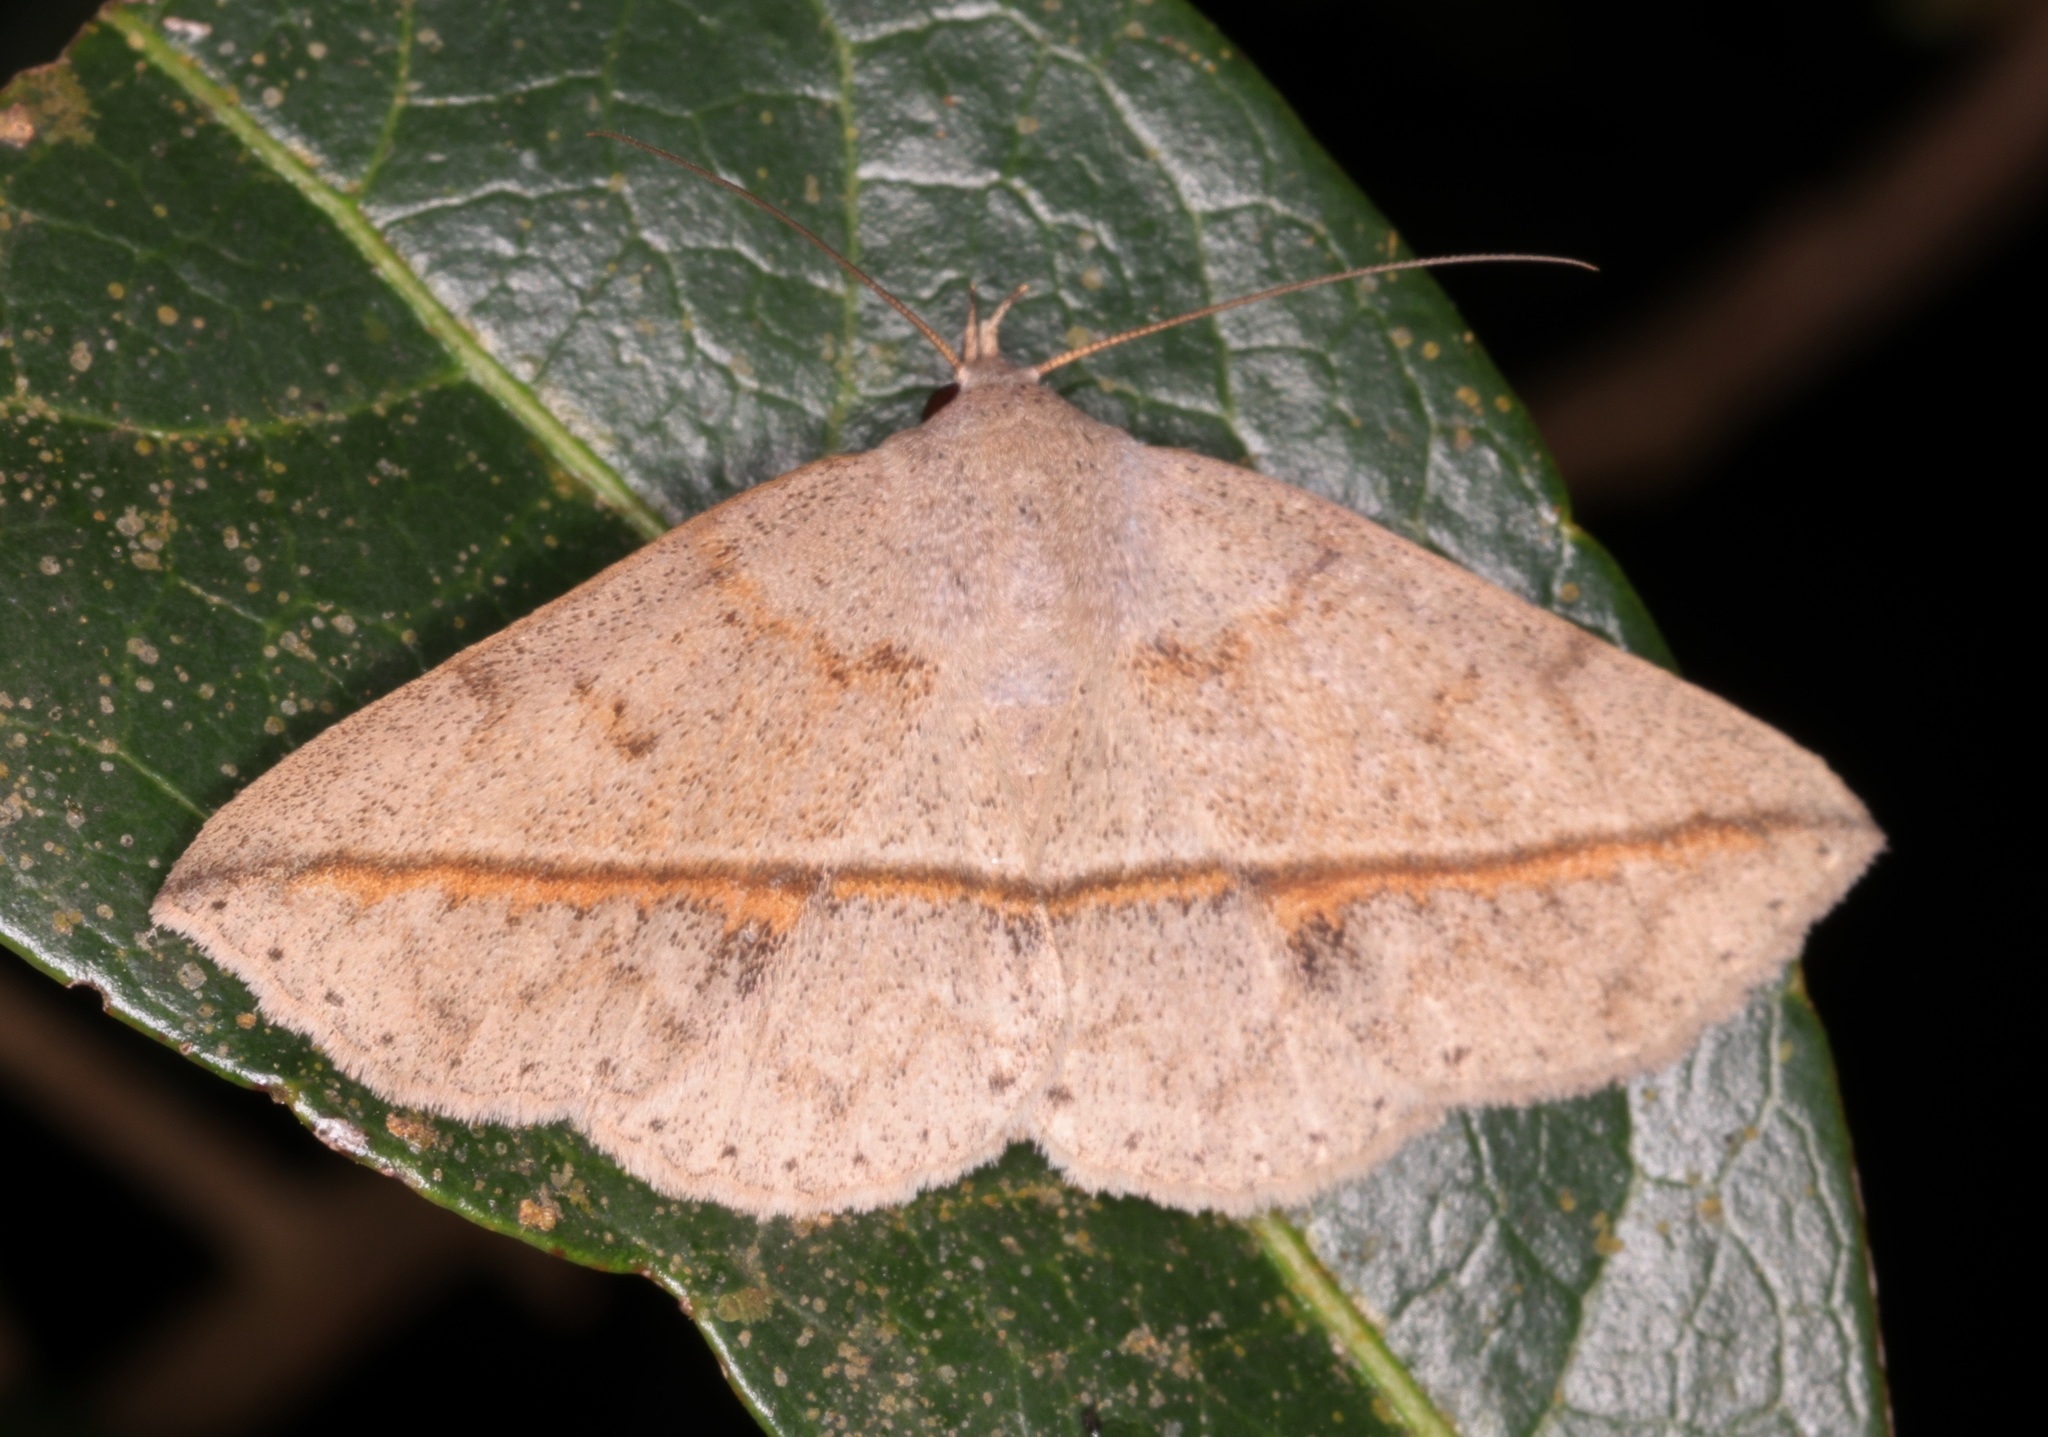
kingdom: Animalia
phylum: Arthropoda
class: Insecta
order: Lepidoptera
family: Erebidae
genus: Ugia
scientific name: Ugia
